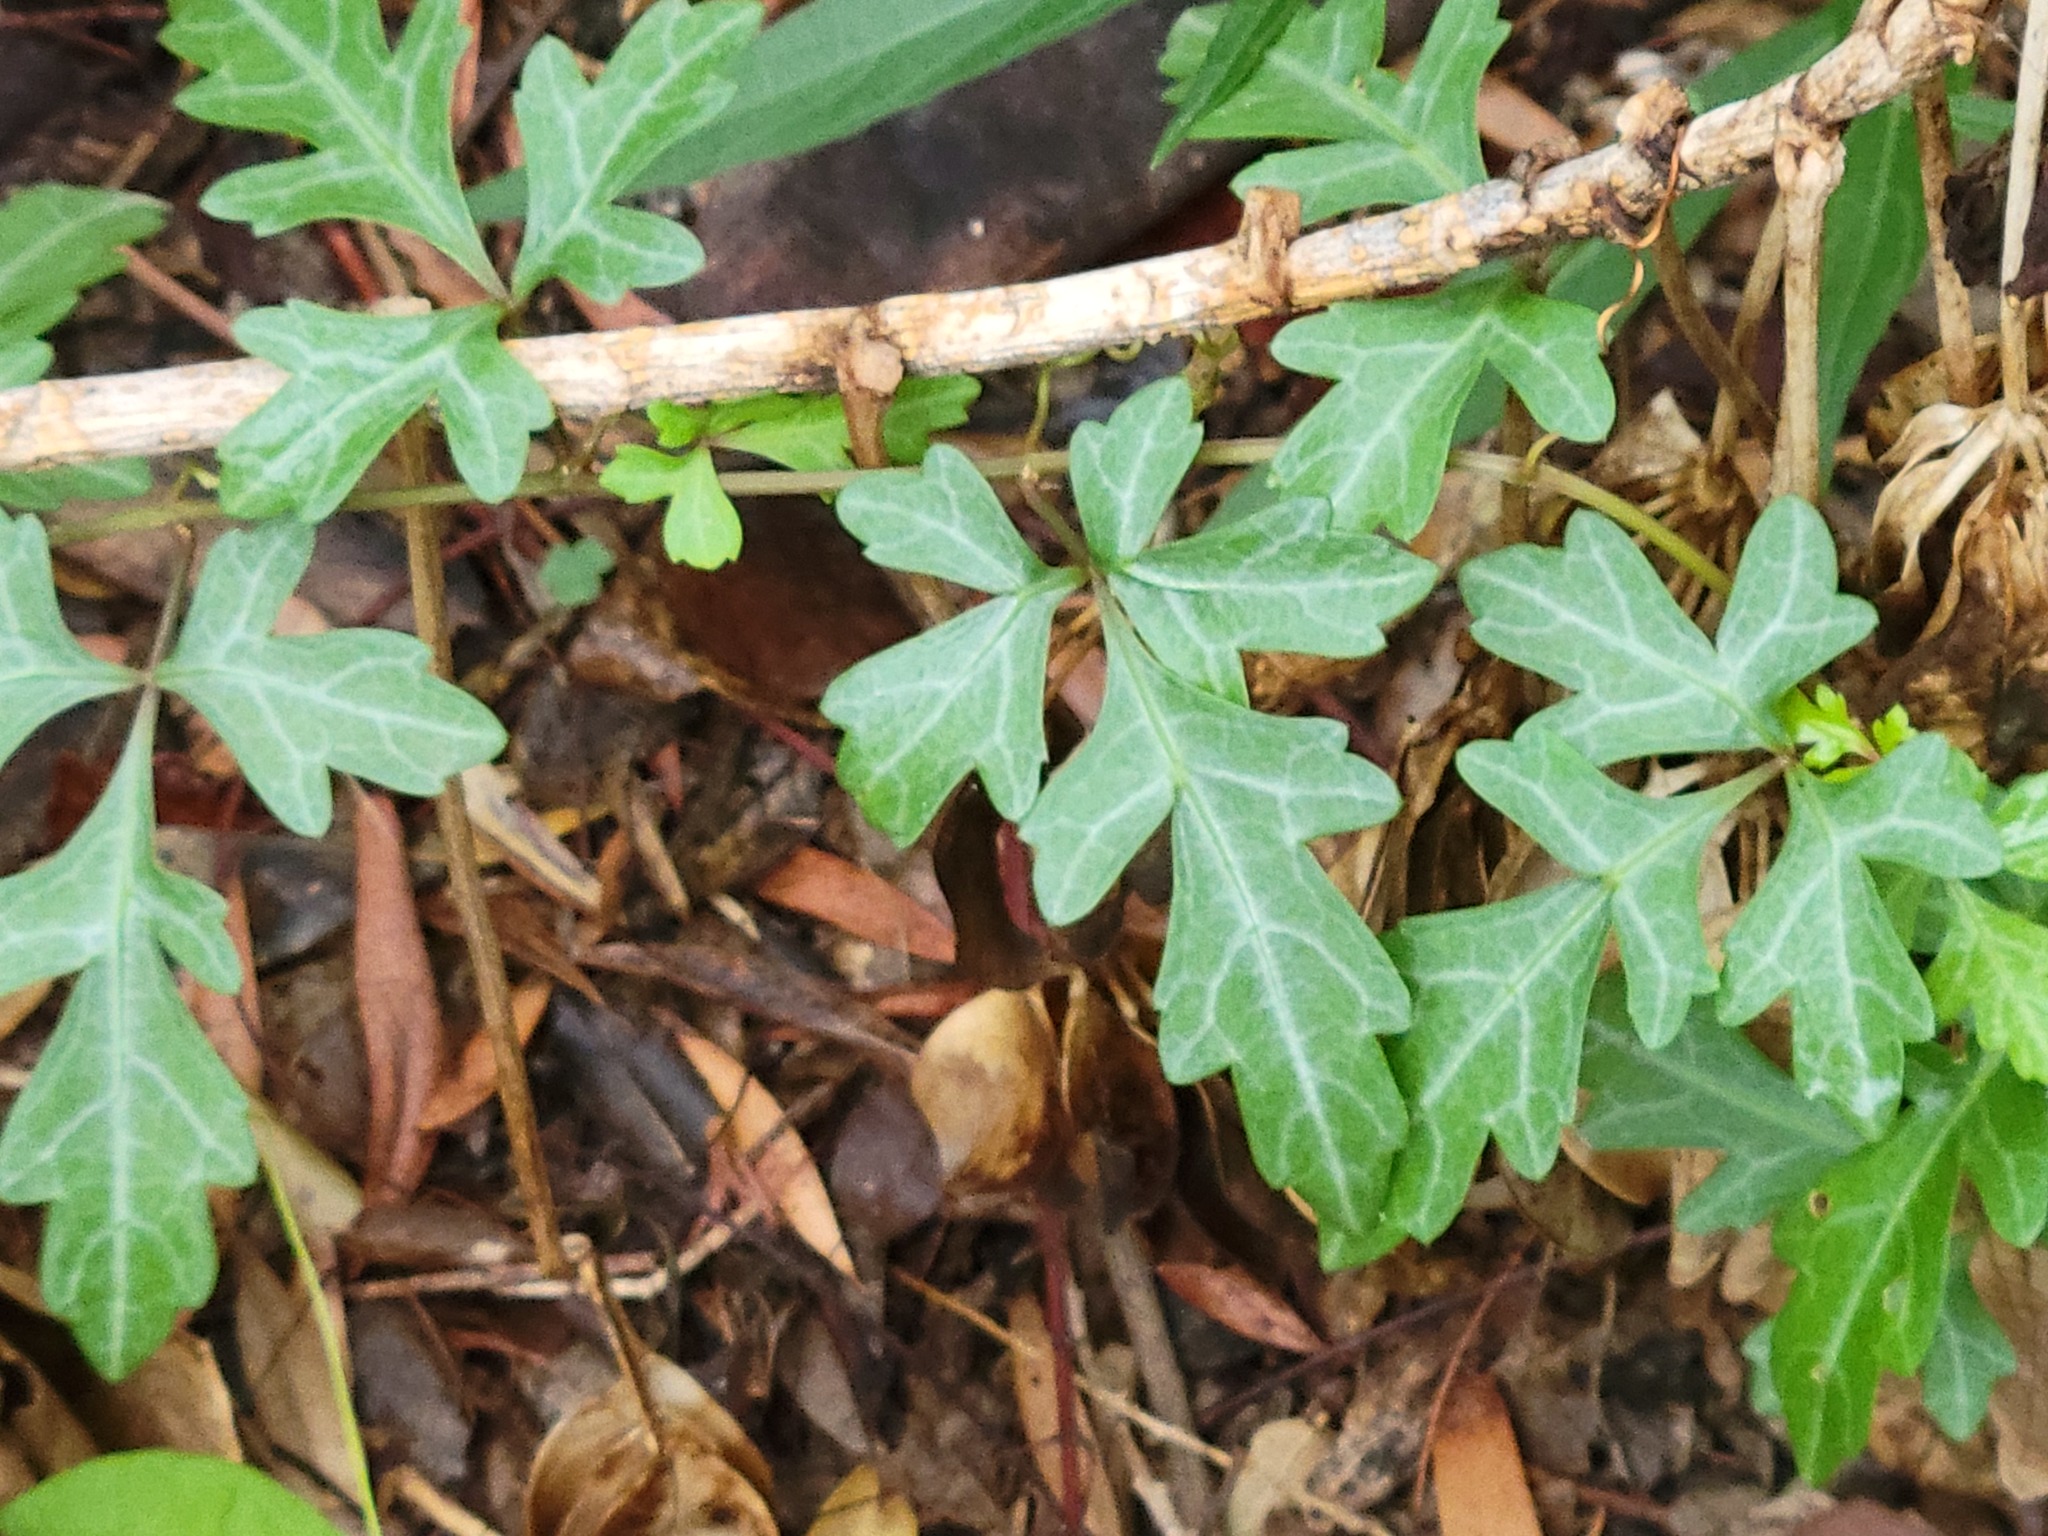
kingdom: Plantae
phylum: Tracheophyta
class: Magnoliopsida
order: Vitales
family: Vitaceae
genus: Cissus
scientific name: Cissus trifoliata
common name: Vine-sorrel
